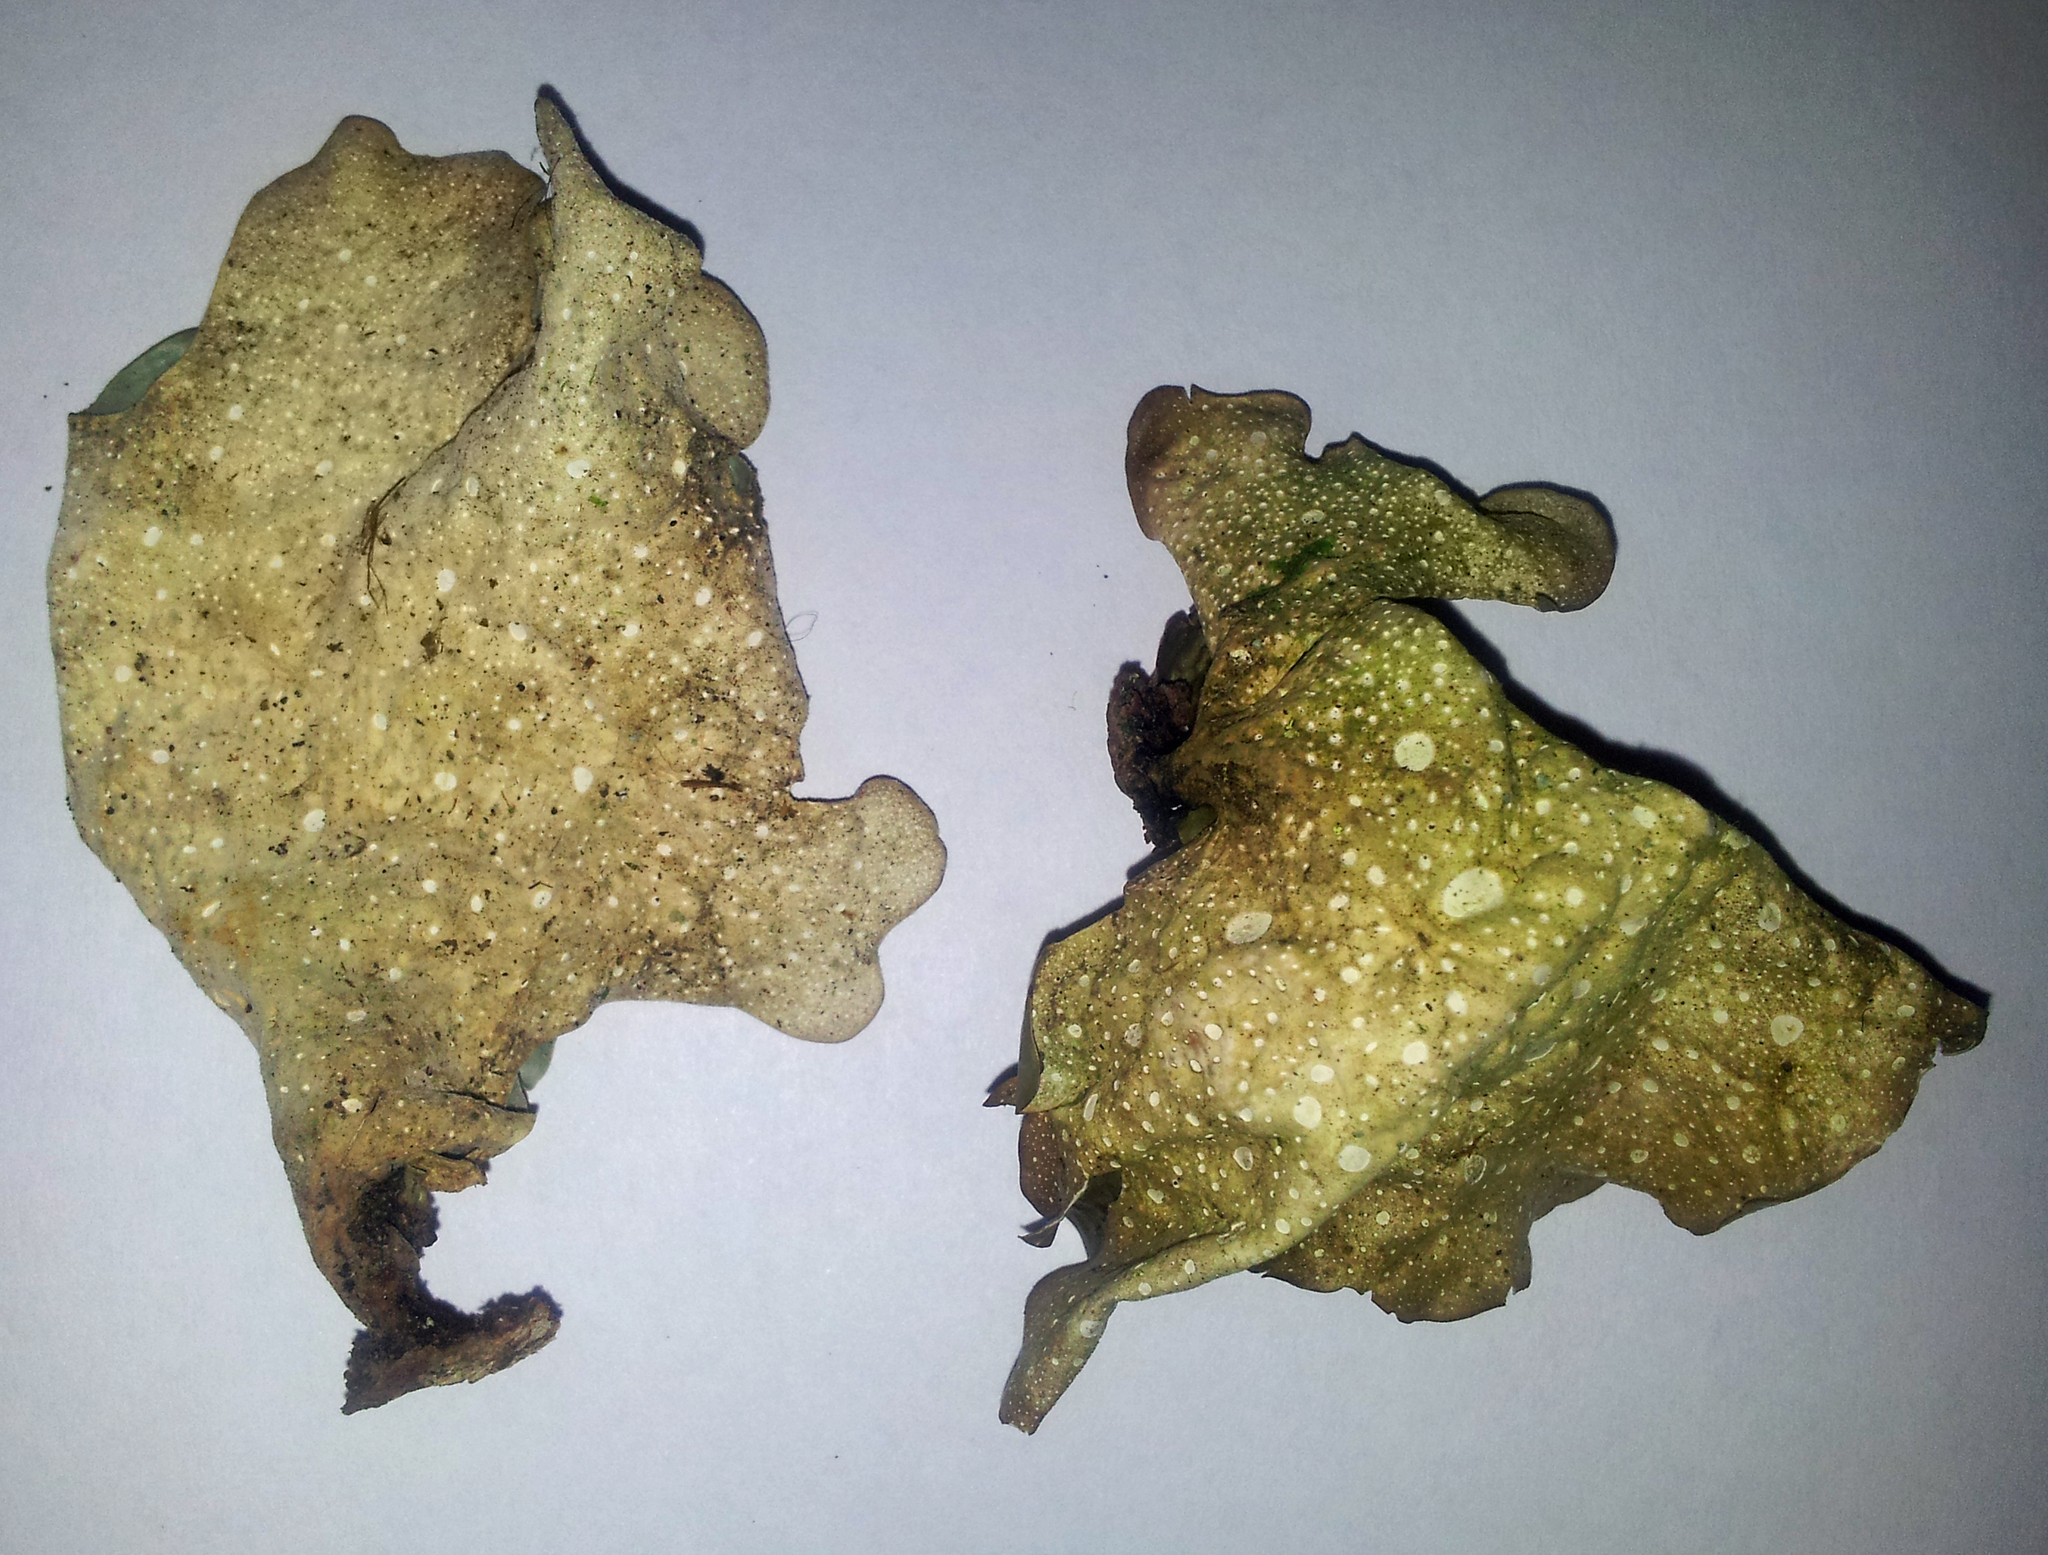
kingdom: Fungi
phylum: Ascomycota
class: Lecanoromycetes
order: Peltigerales
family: Lobariaceae
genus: Sticta
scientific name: Sticta latifrons
